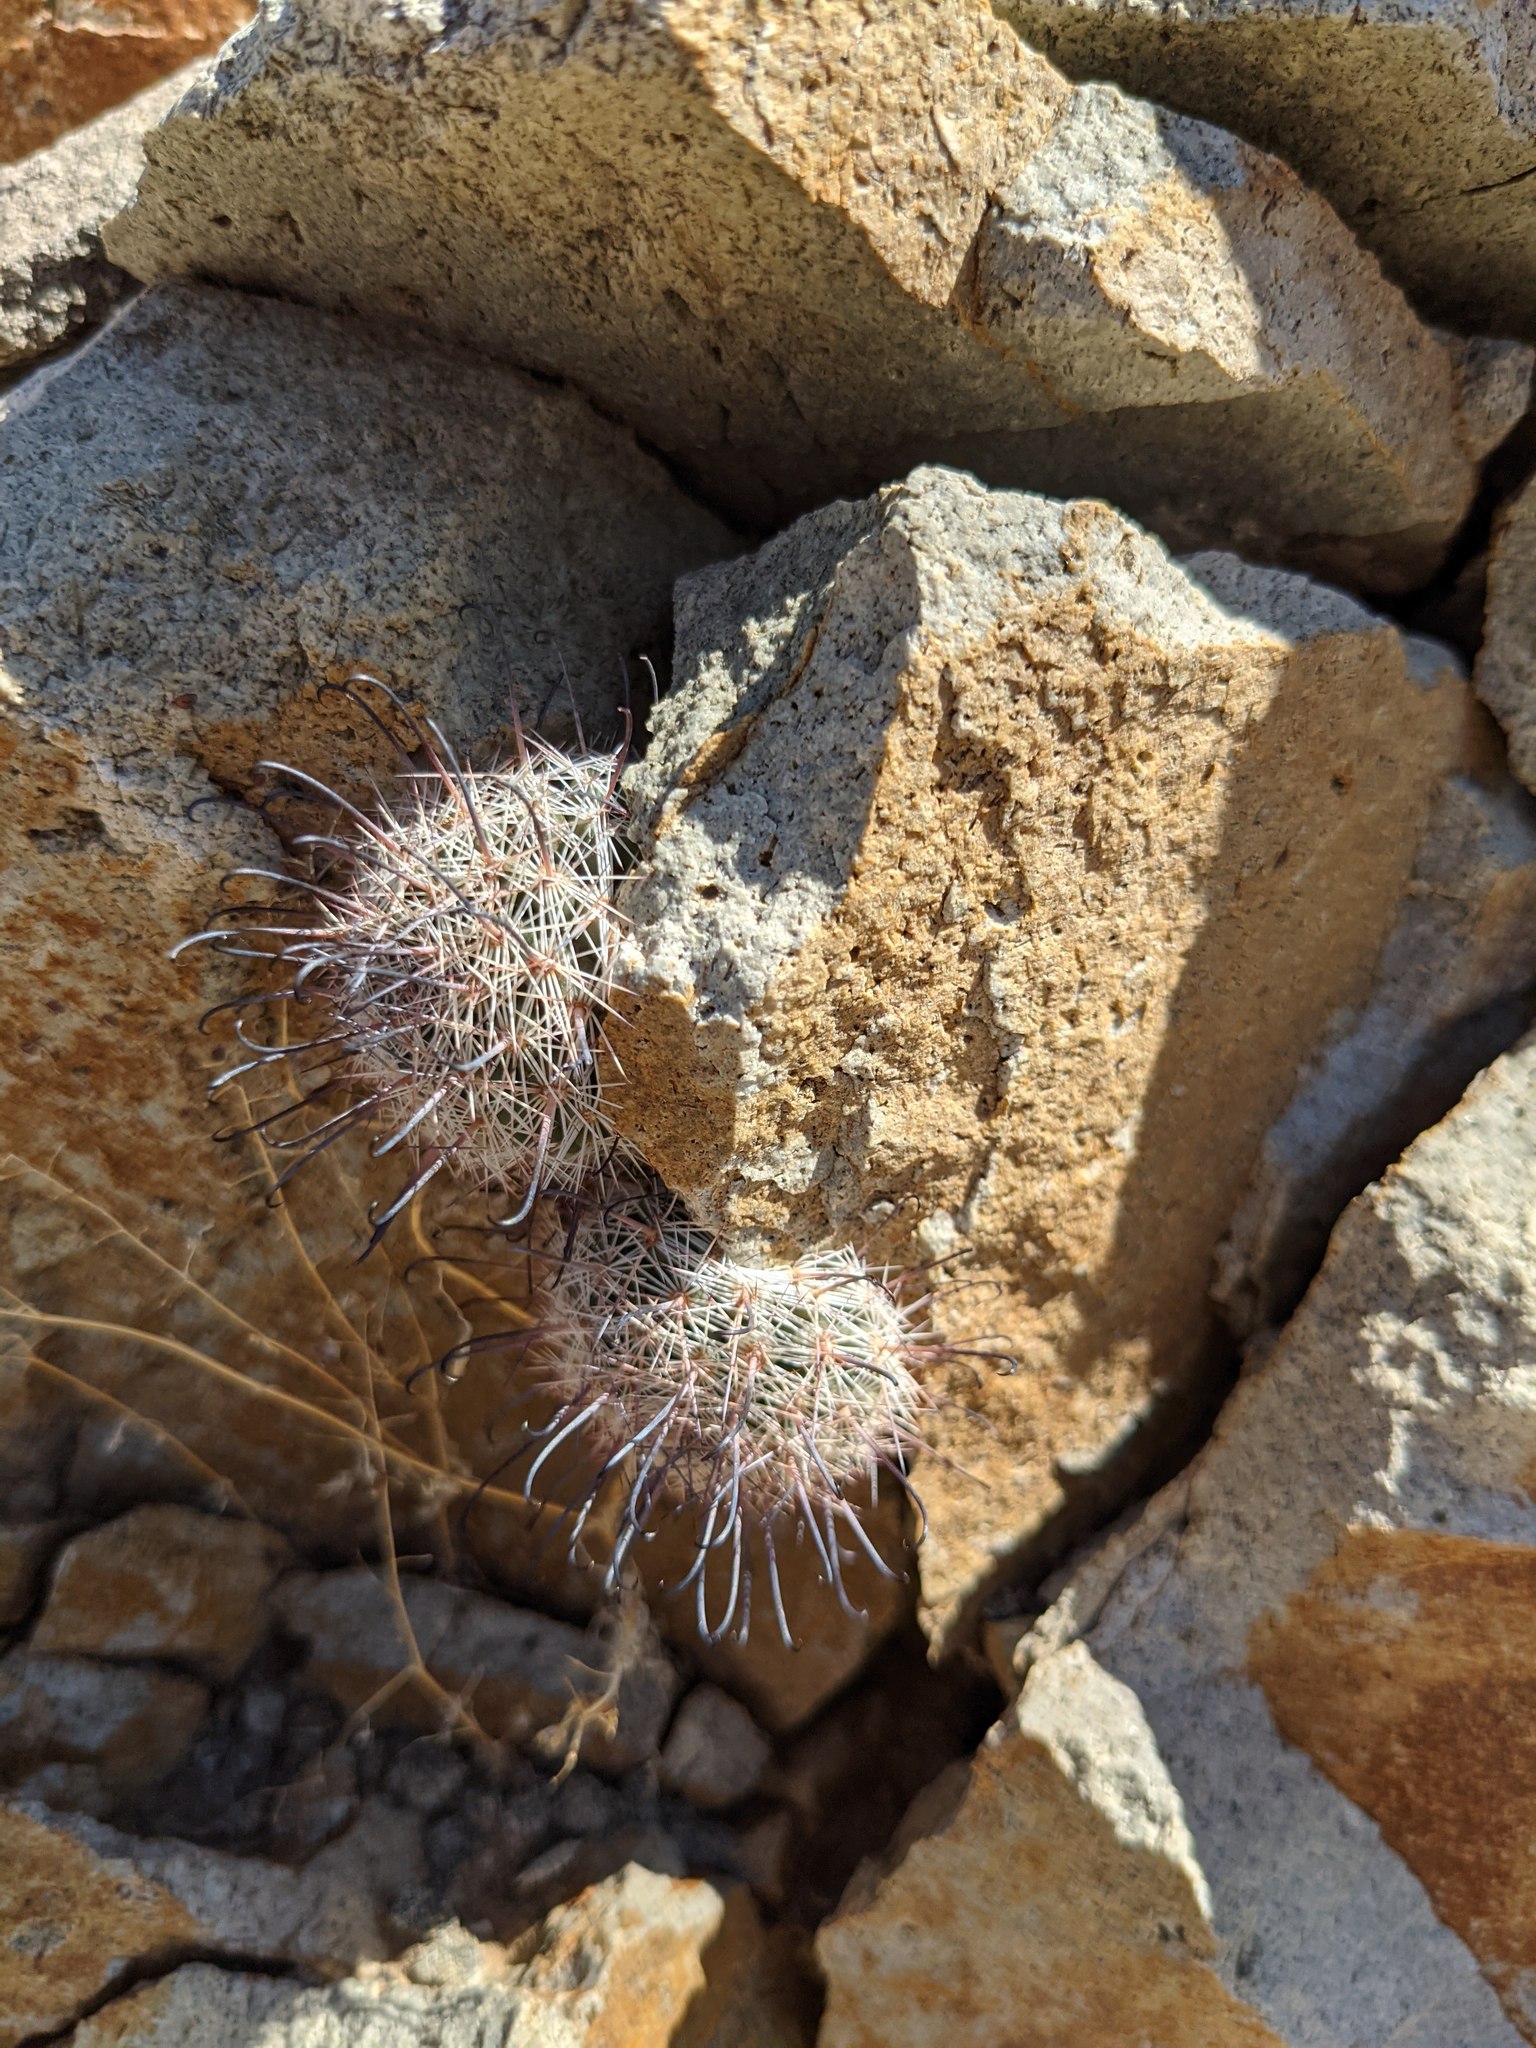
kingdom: Plantae
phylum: Tracheophyta
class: Magnoliopsida
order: Caryophyllales
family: Cactaceae
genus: Cochemiea
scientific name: Cochemiea grahamii
